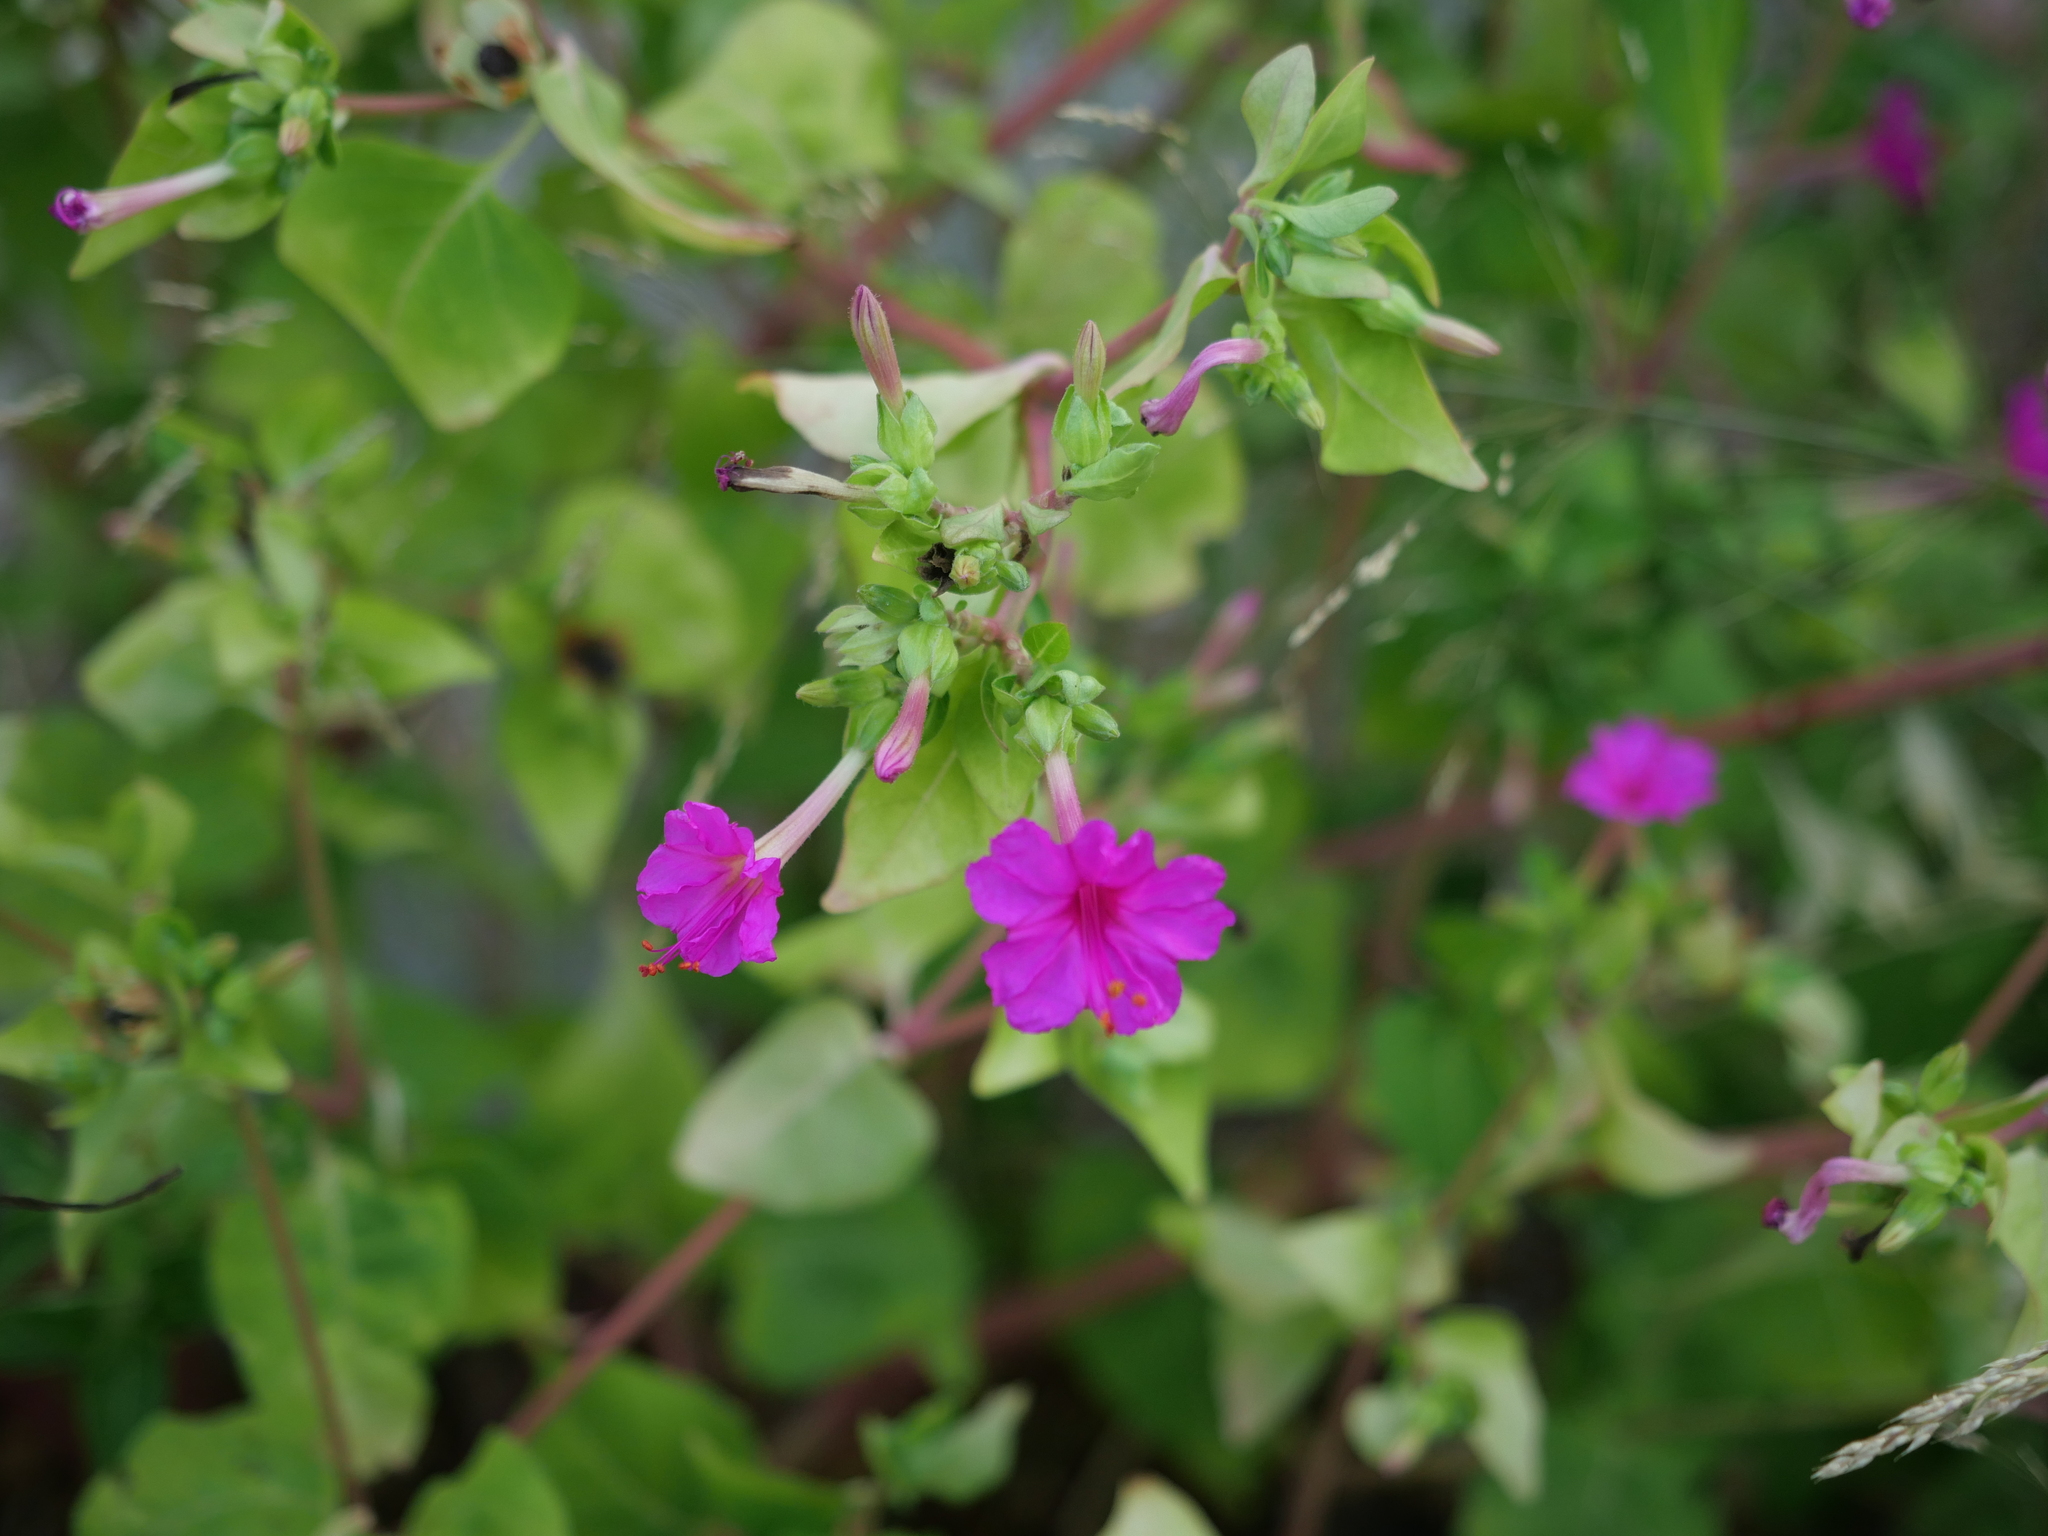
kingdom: Plantae
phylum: Tracheophyta
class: Magnoliopsida
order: Caryophyllales
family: Nyctaginaceae
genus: Mirabilis
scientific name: Mirabilis jalapa
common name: Marvel-of-peru
